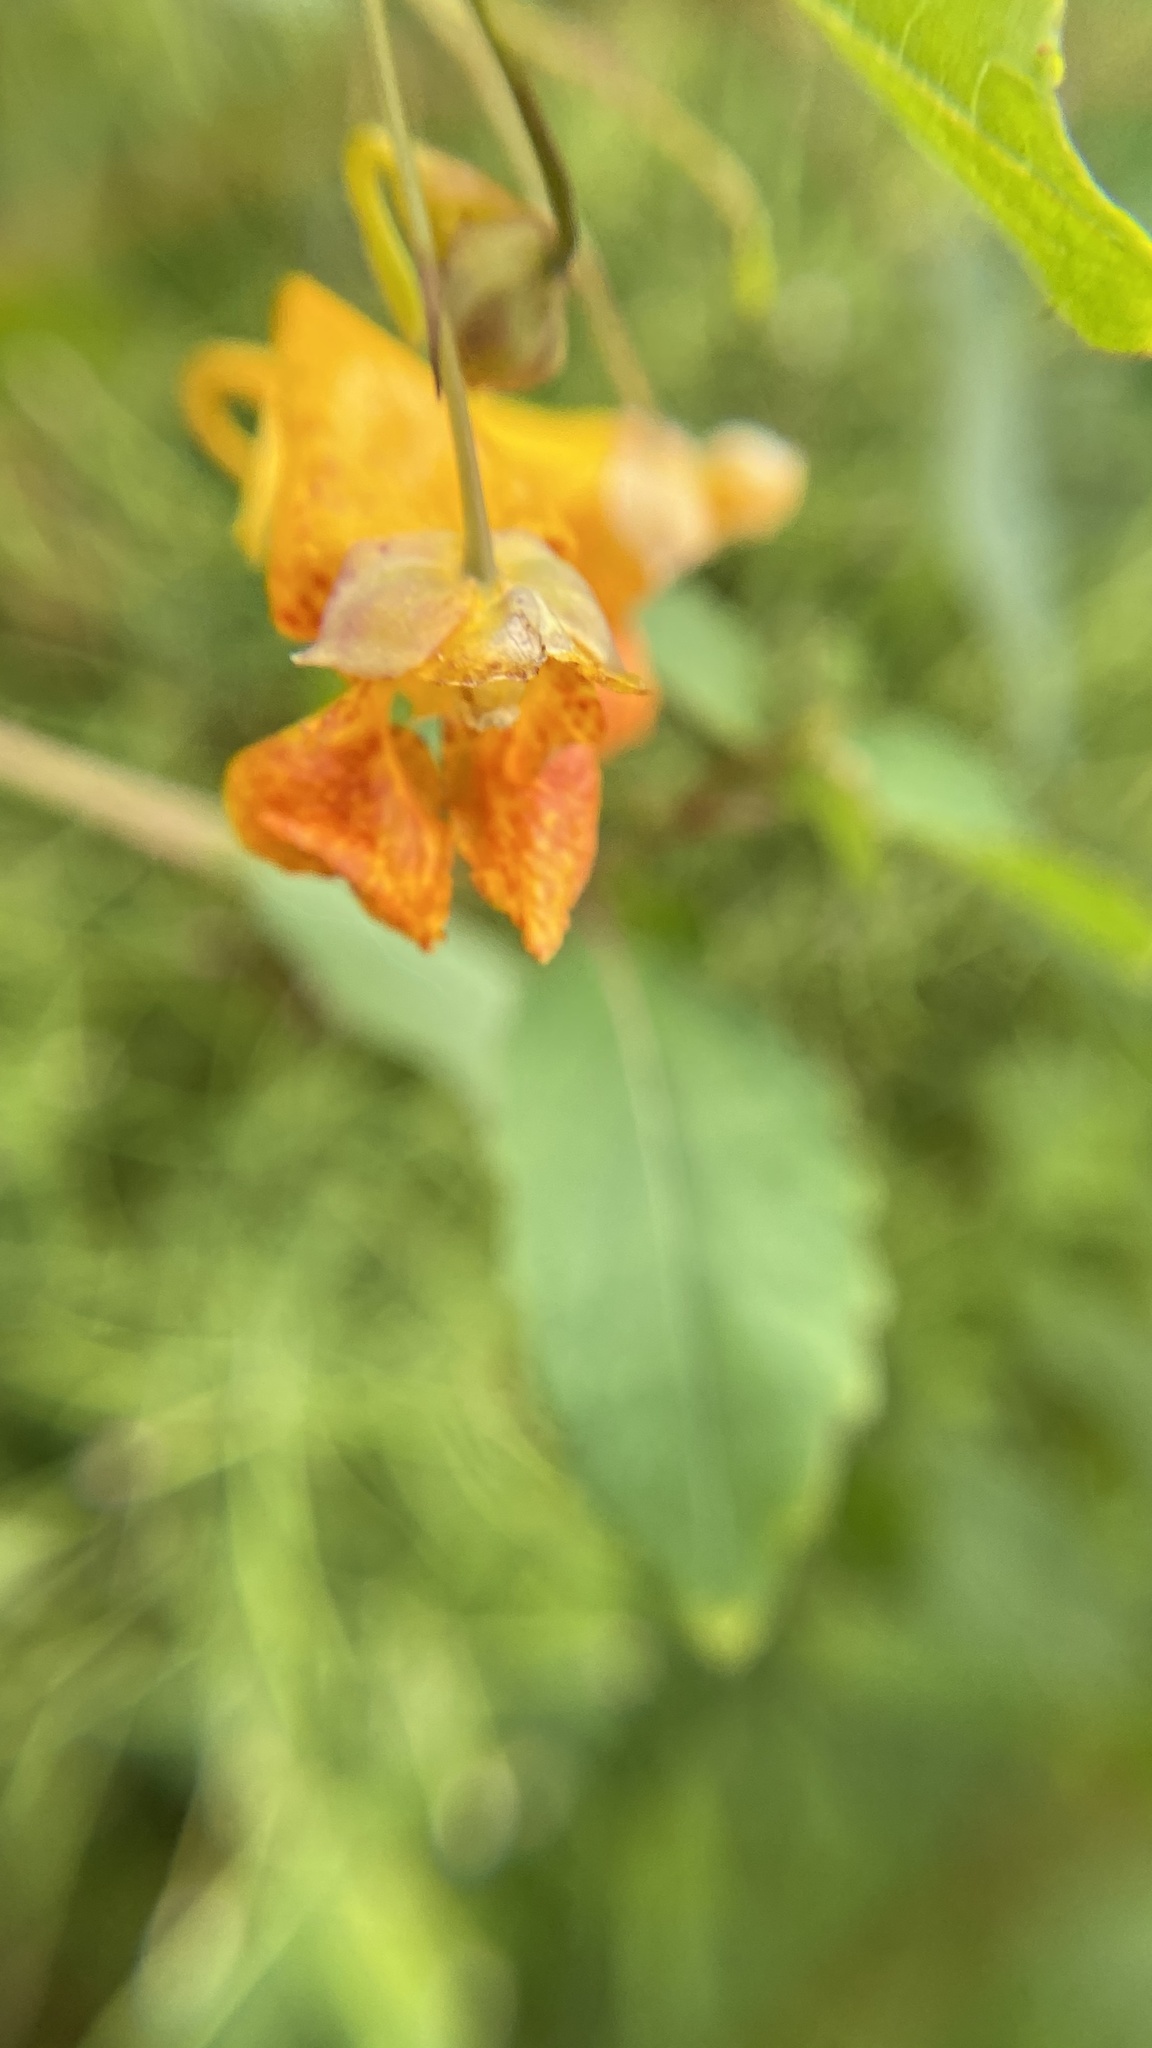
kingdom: Plantae
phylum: Tracheophyta
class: Magnoliopsida
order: Ericales
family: Balsaminaceae
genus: Impatiens
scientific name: Impatiens capensis
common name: Orange balsam
